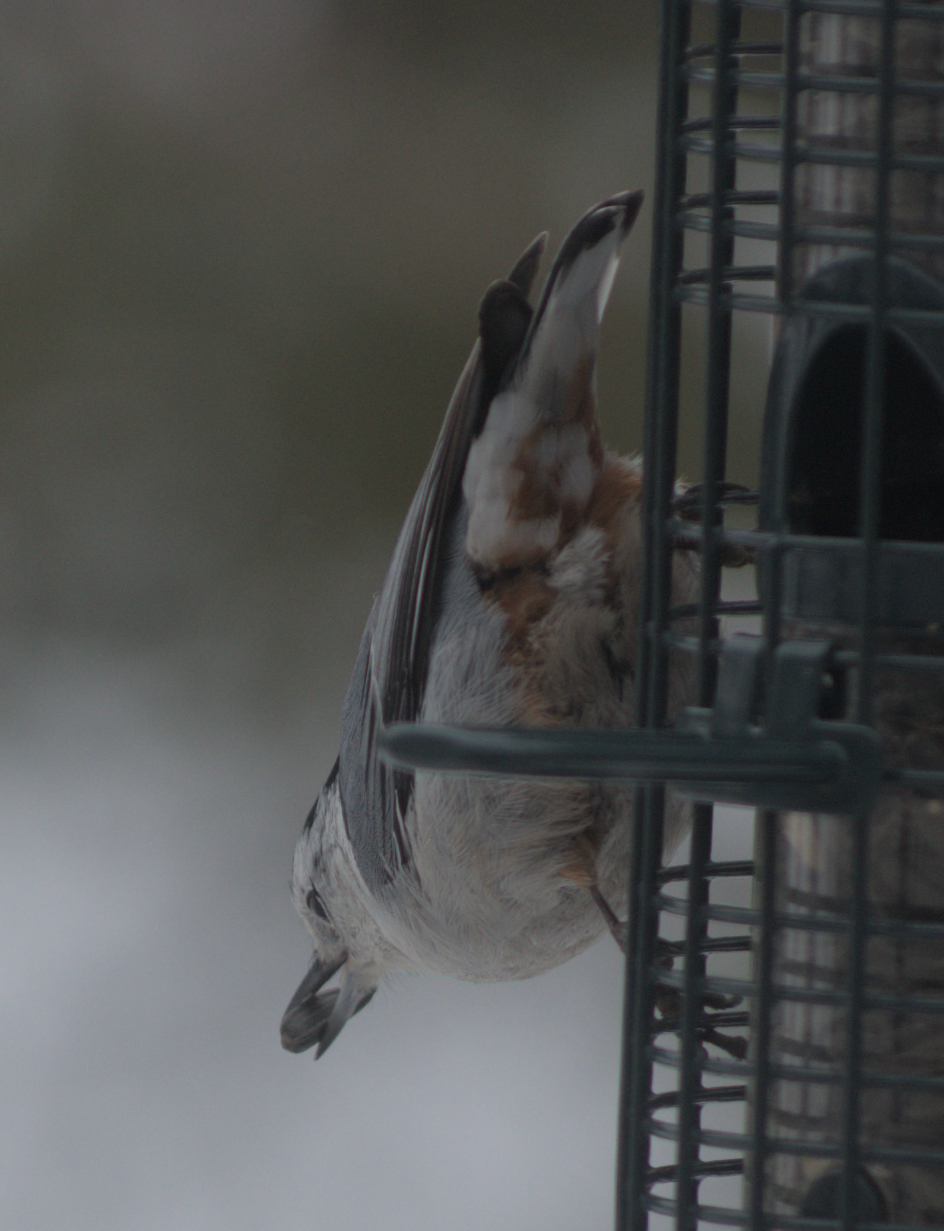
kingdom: Animalia
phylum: Chordata
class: Aves
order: Passeriformes
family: Sittidae
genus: Sitta
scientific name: Sitta carolinensis
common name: White-breasted nuthatch
